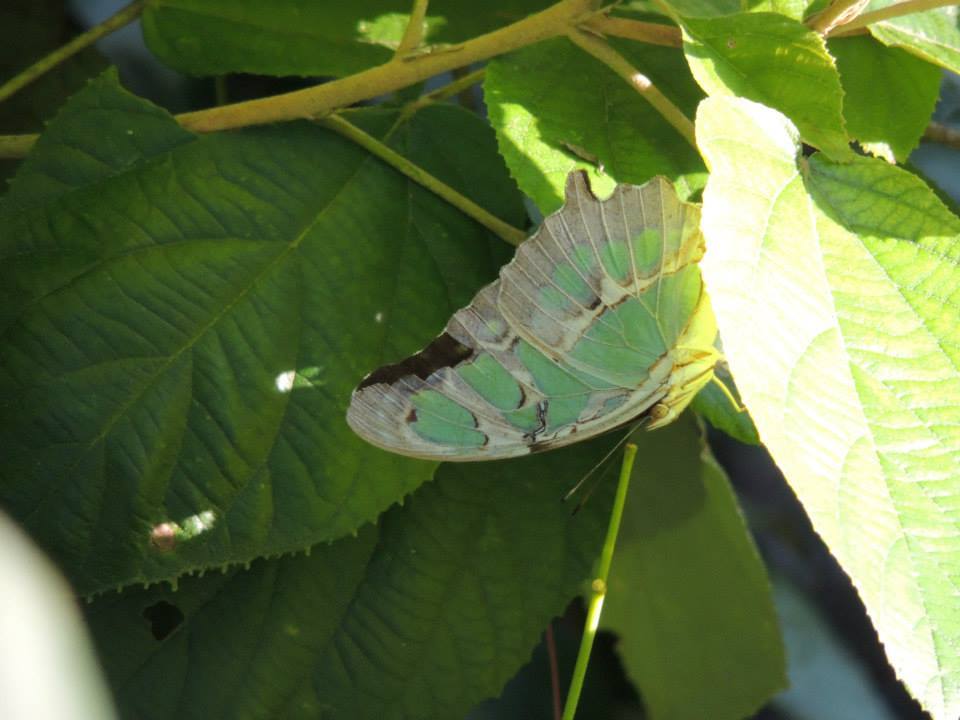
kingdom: Animalia
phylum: Arthropoda
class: Insecta
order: Lepidoptera
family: Nymphalidae
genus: Siproeta
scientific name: Siproeta stelenes
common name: Malachite
